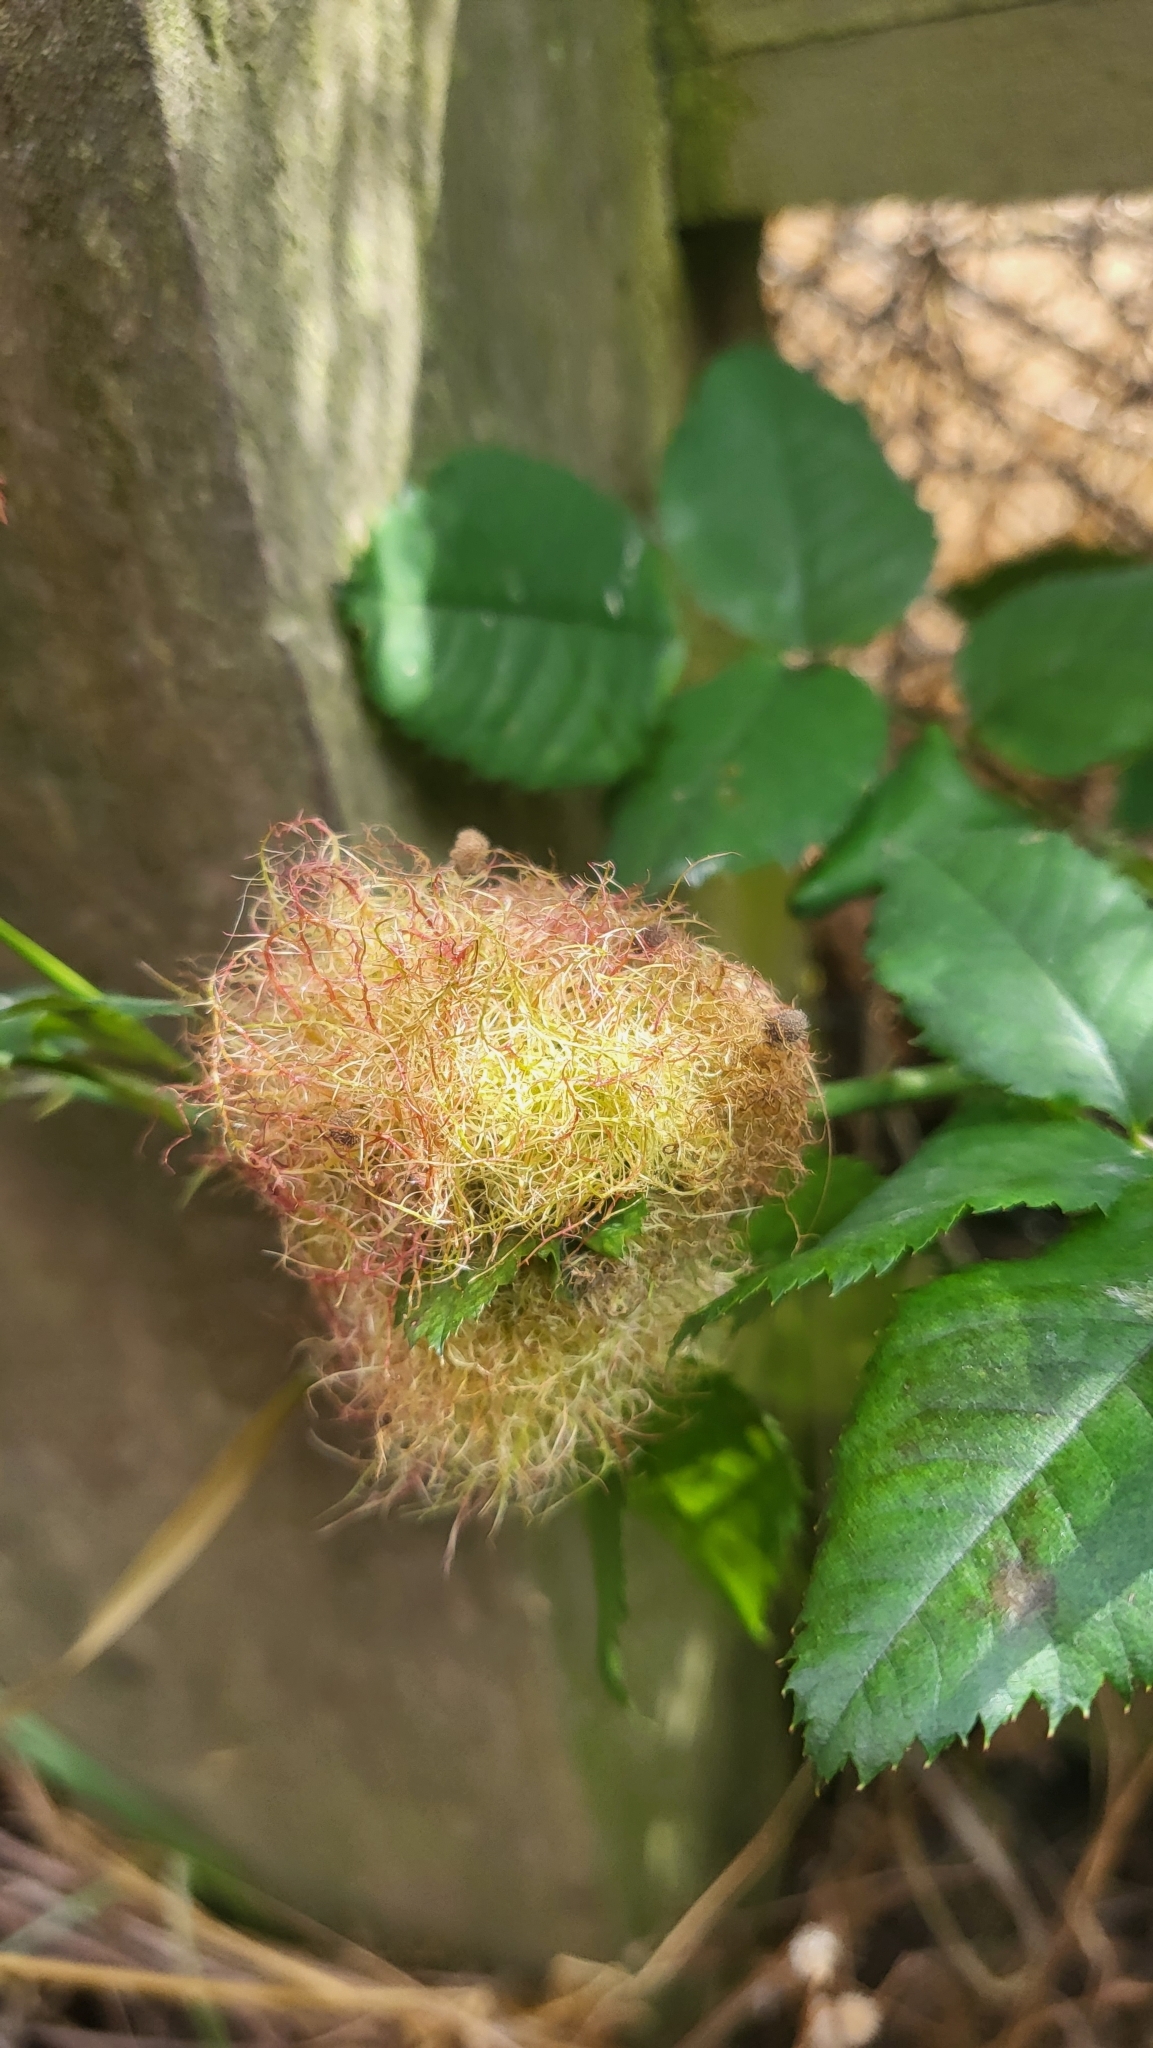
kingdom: Animalia
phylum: Arthropoda
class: Insecta
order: Hymenoptera
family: Cynipidae
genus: Diplolepis
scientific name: Diplolepis rosae
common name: Bedeguar gall
